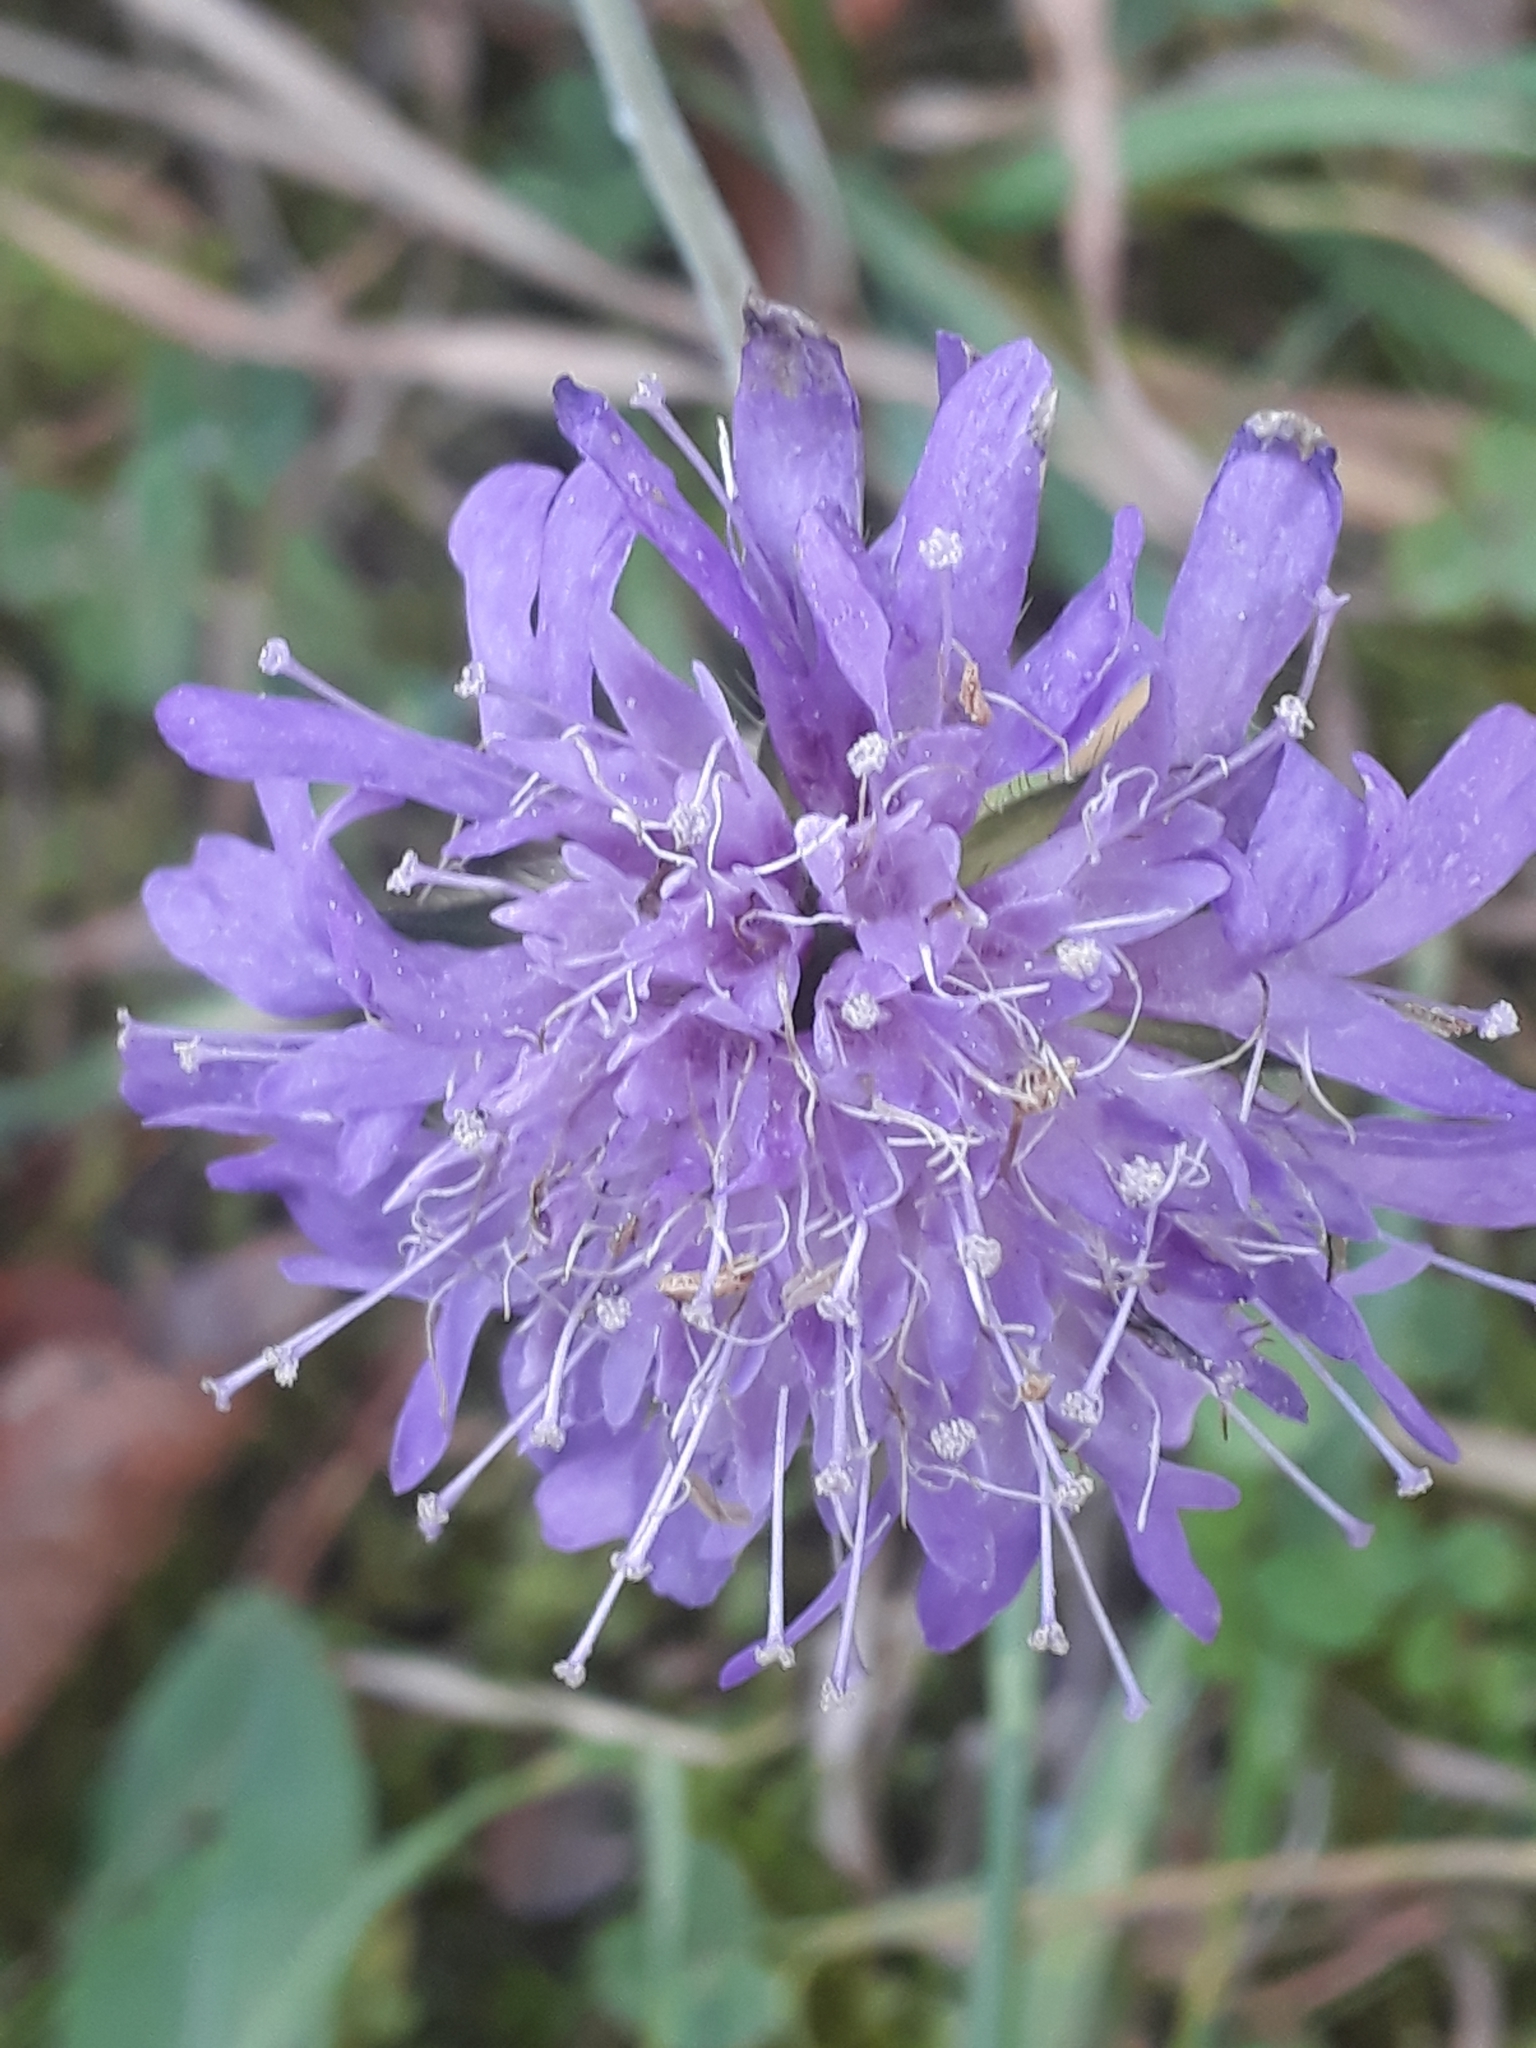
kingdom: Plantae
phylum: Tracheophyta
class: Magnoliopsida
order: Dipsacales
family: Caprifoliaceae
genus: Knautia
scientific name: Knautia arvensis
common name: Field scabiosa
